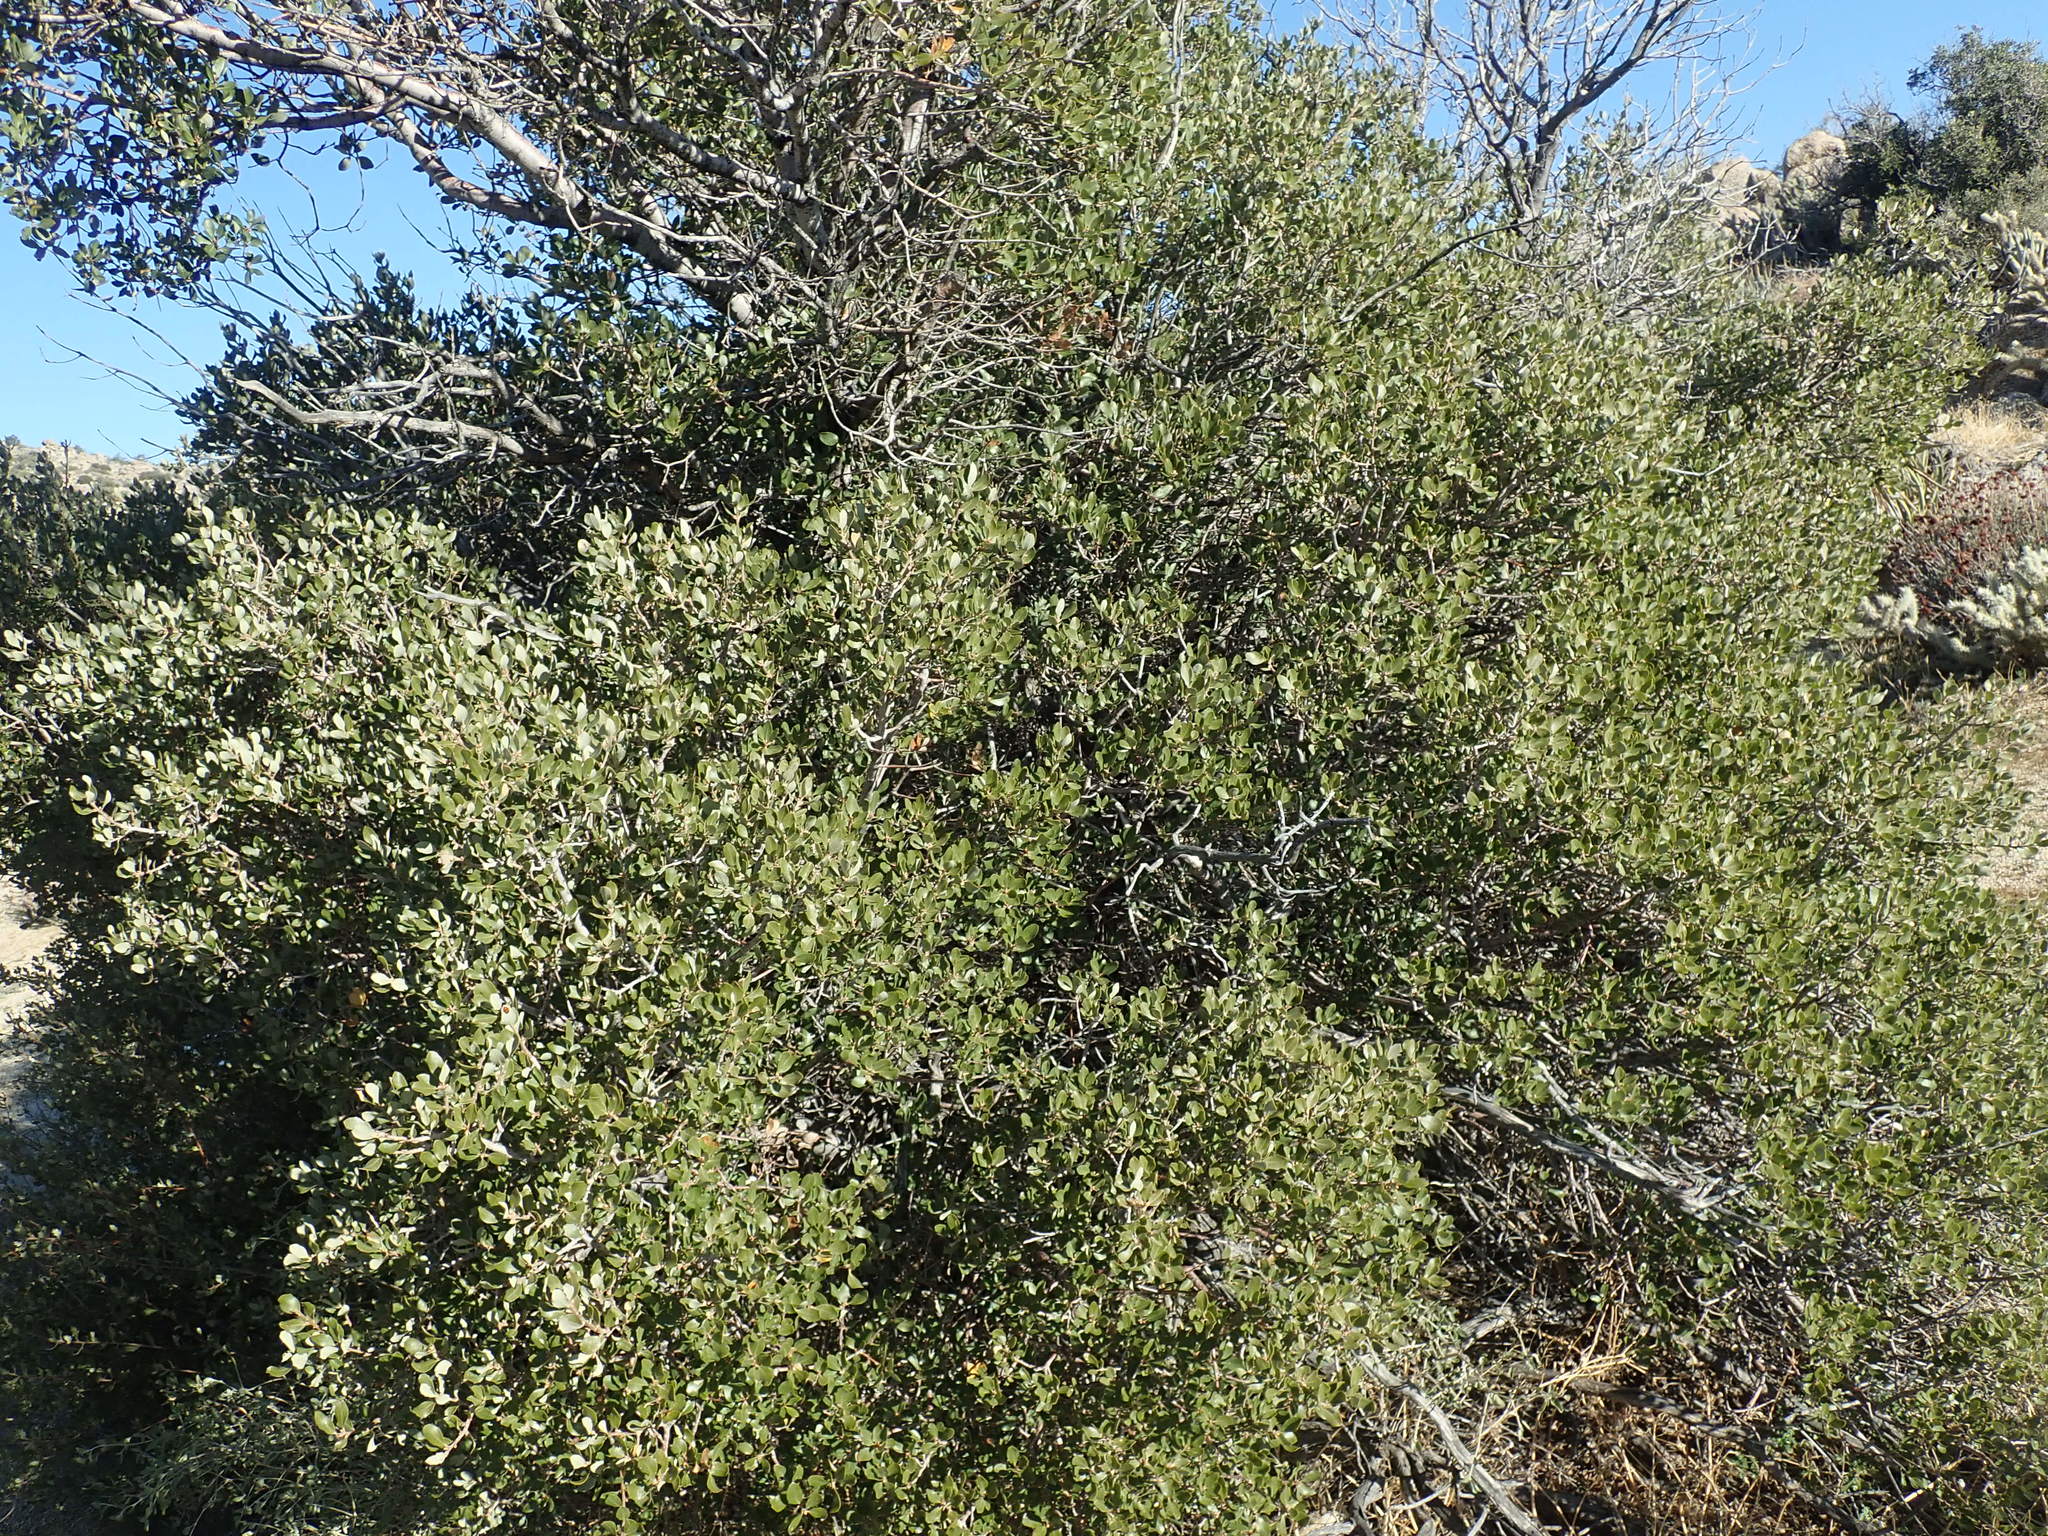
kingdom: Plantae
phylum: Tracheophyta
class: Magnoliopsida
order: Fagales
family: Fagaceae
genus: Quercus
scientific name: Quercus cornelius-mulleri
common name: Muller oak
